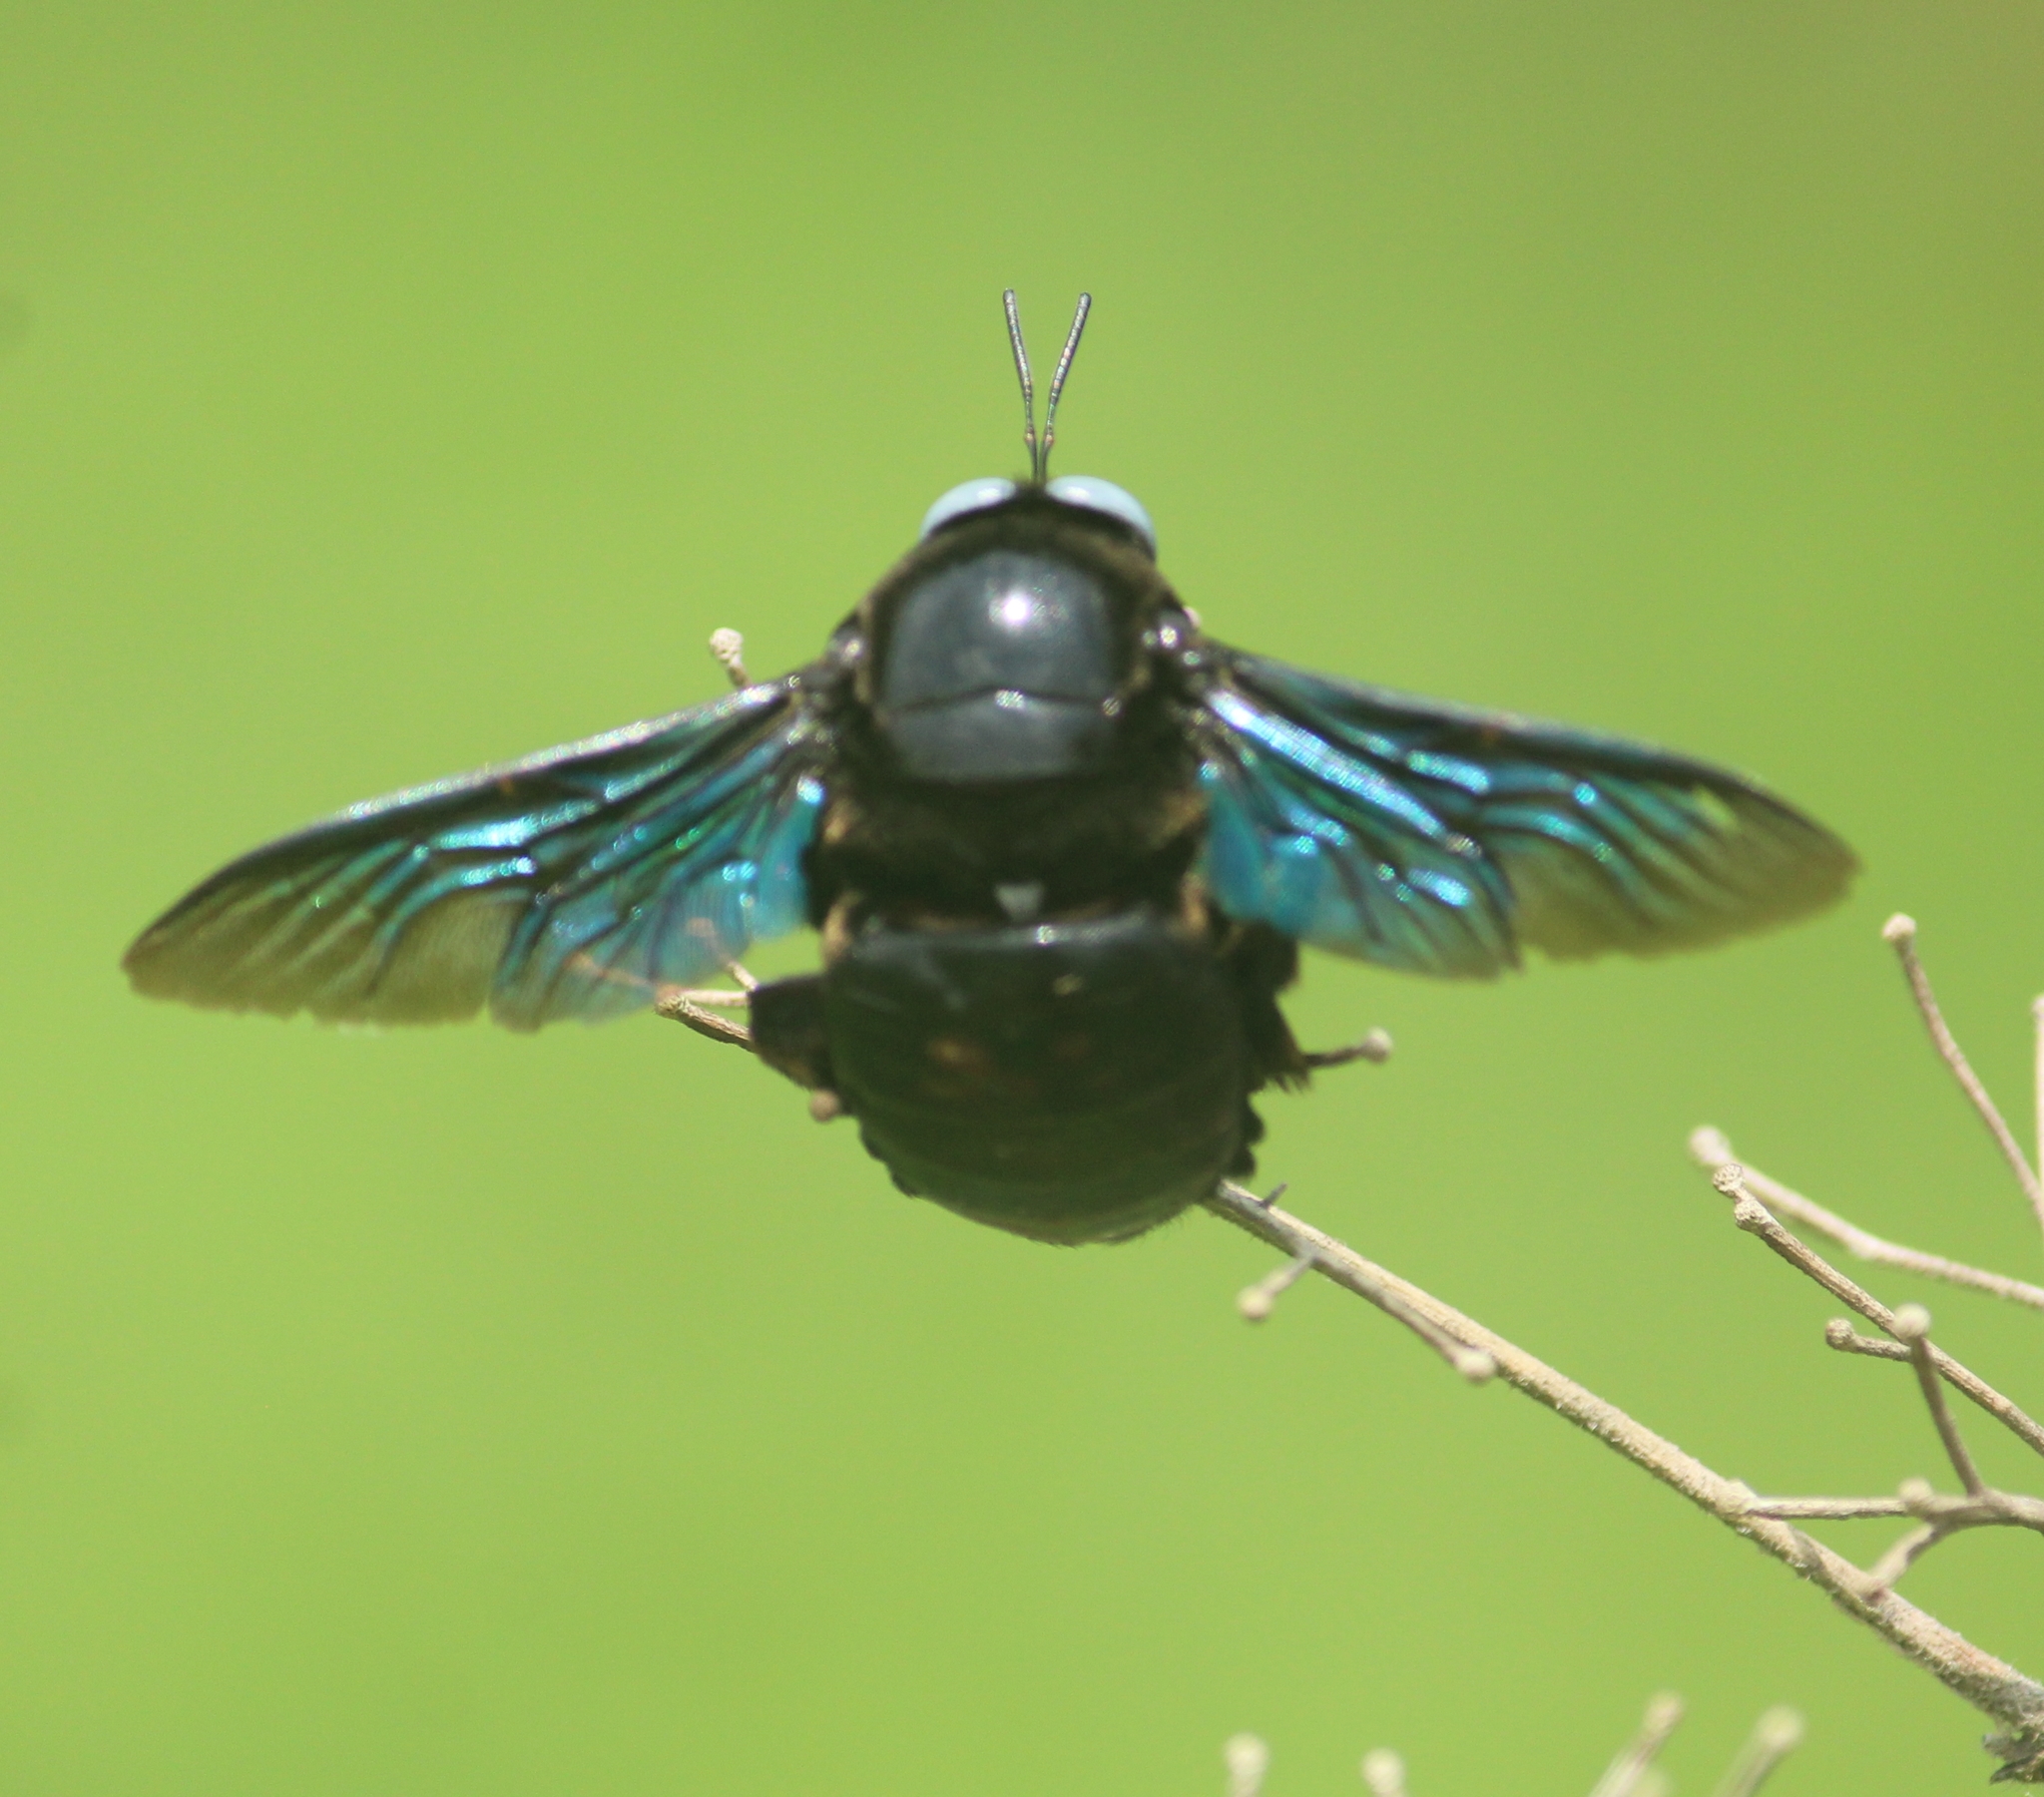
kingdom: Animalia
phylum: Arthropoda
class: Insecta
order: Hymenoptera
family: Apidae
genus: Xylocopa
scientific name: Xylocopa tenuiscapa
